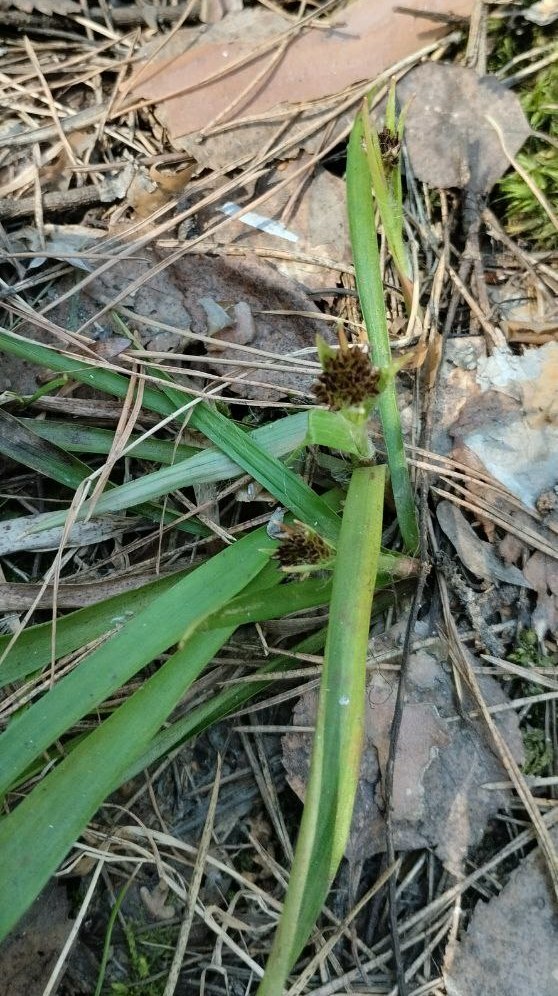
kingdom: Plantae
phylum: Tracheophyta
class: Liliopsida
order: Poales
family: Juncaceae
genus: Luzula
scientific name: Luzula pilosa
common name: Hairy wood-rush
